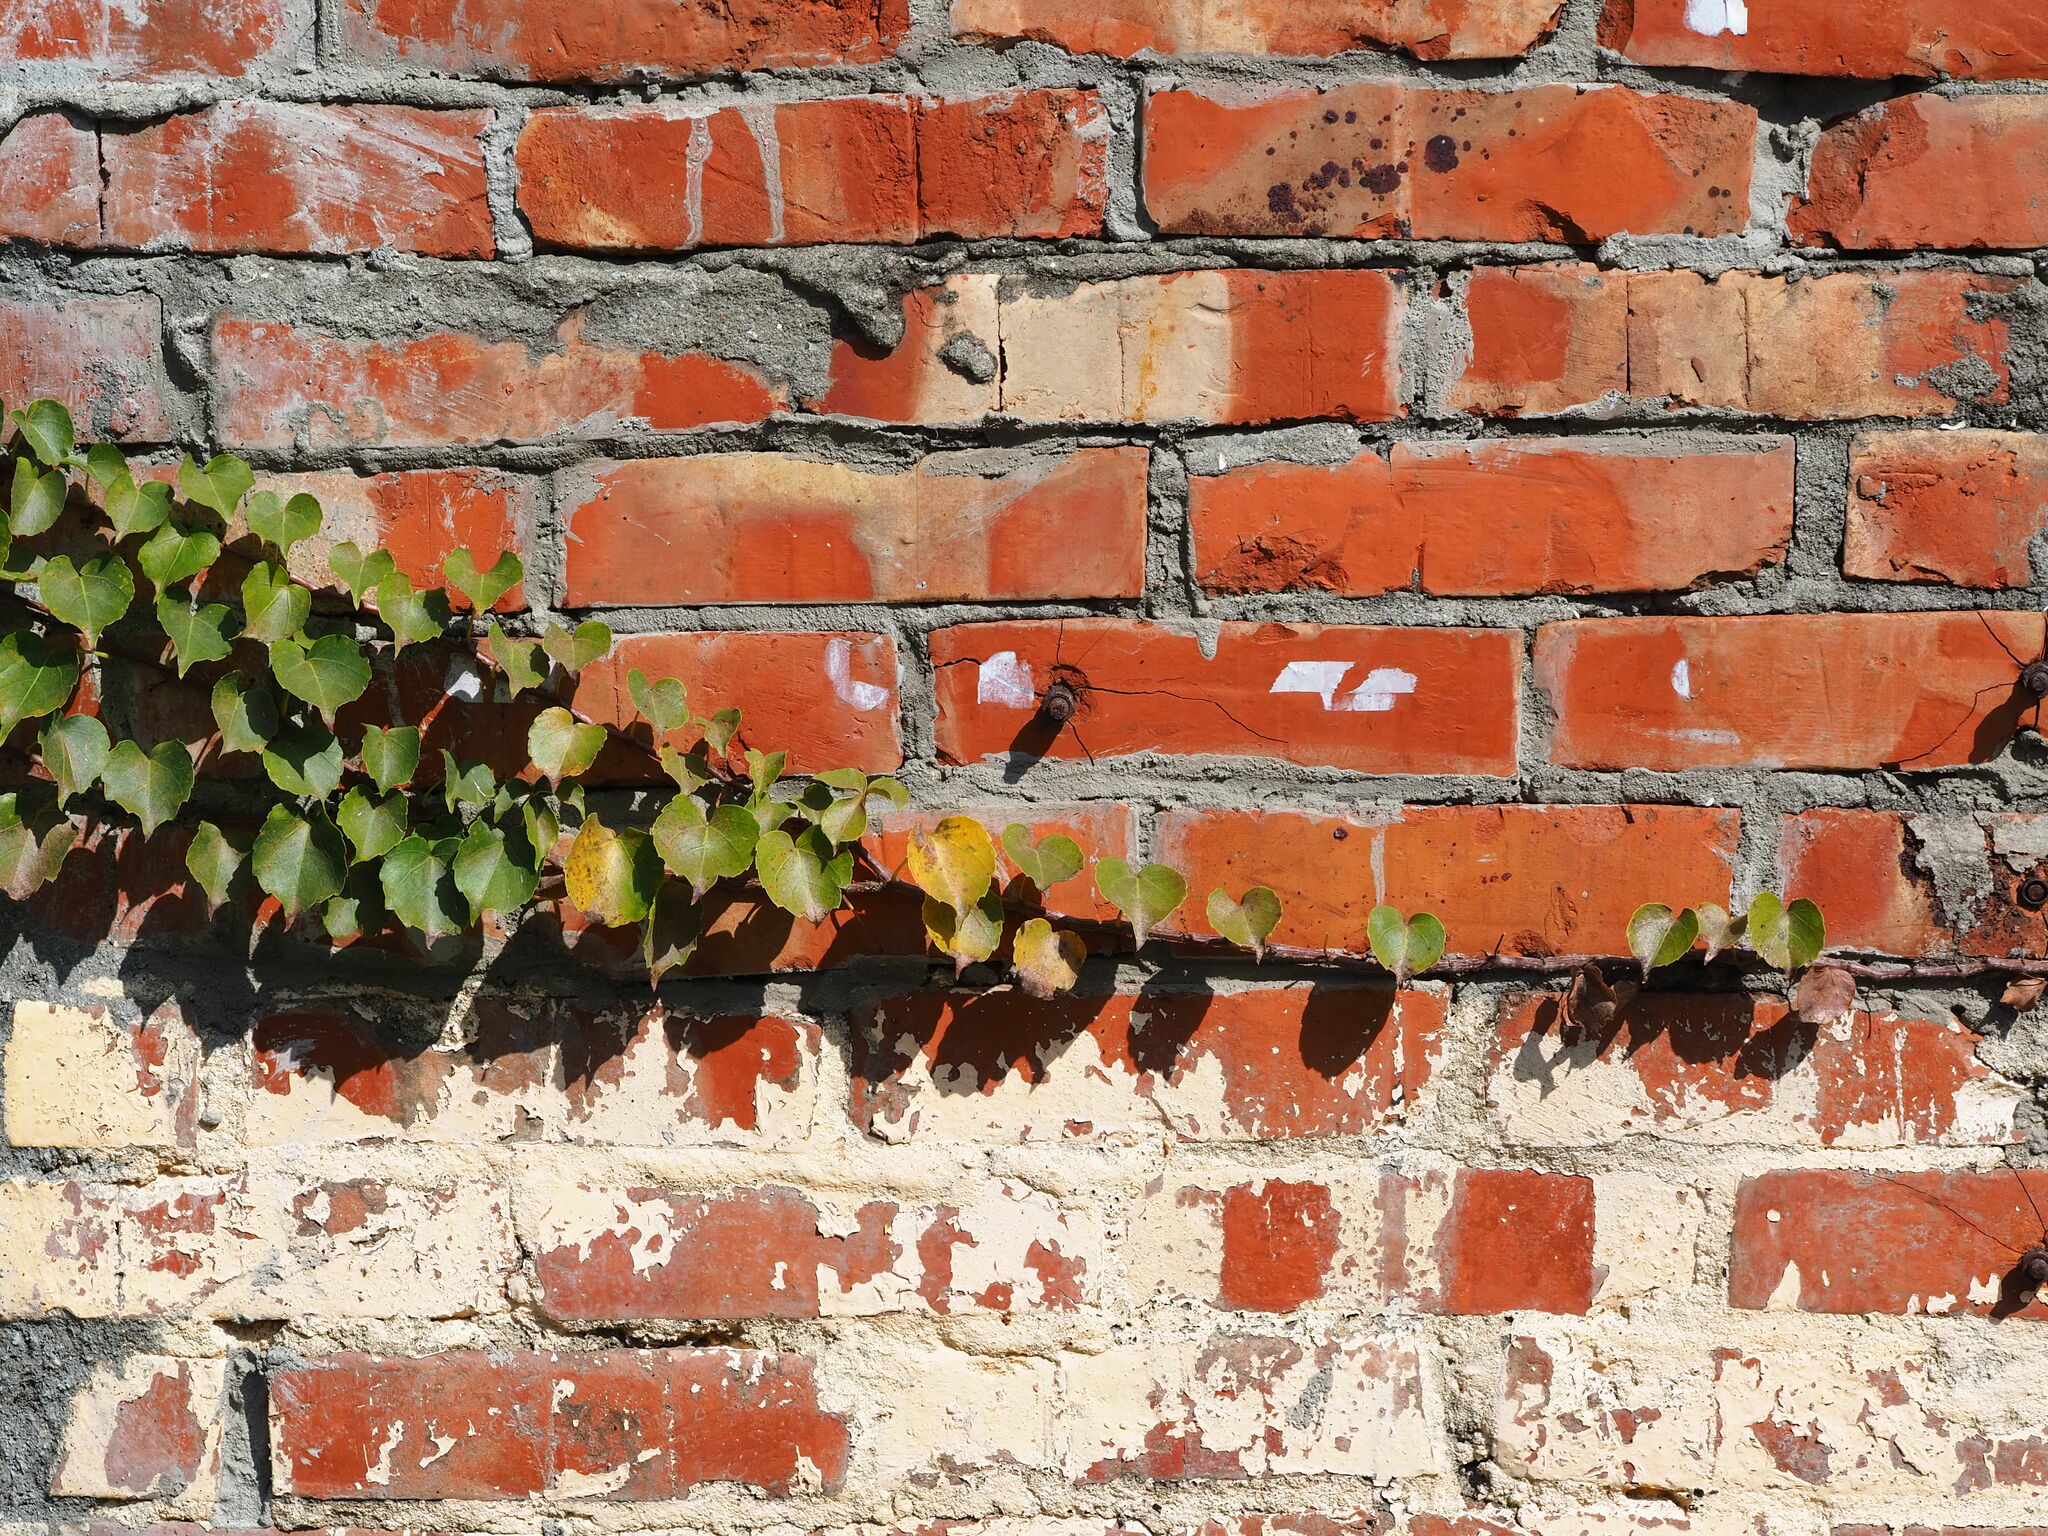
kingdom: Plantae
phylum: Tracheophyta
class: Magnoliopsida
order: Vitales
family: Vitaceae
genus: Parthenocissus
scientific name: Parthenocissus tricuspidata
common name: Boston ivy
